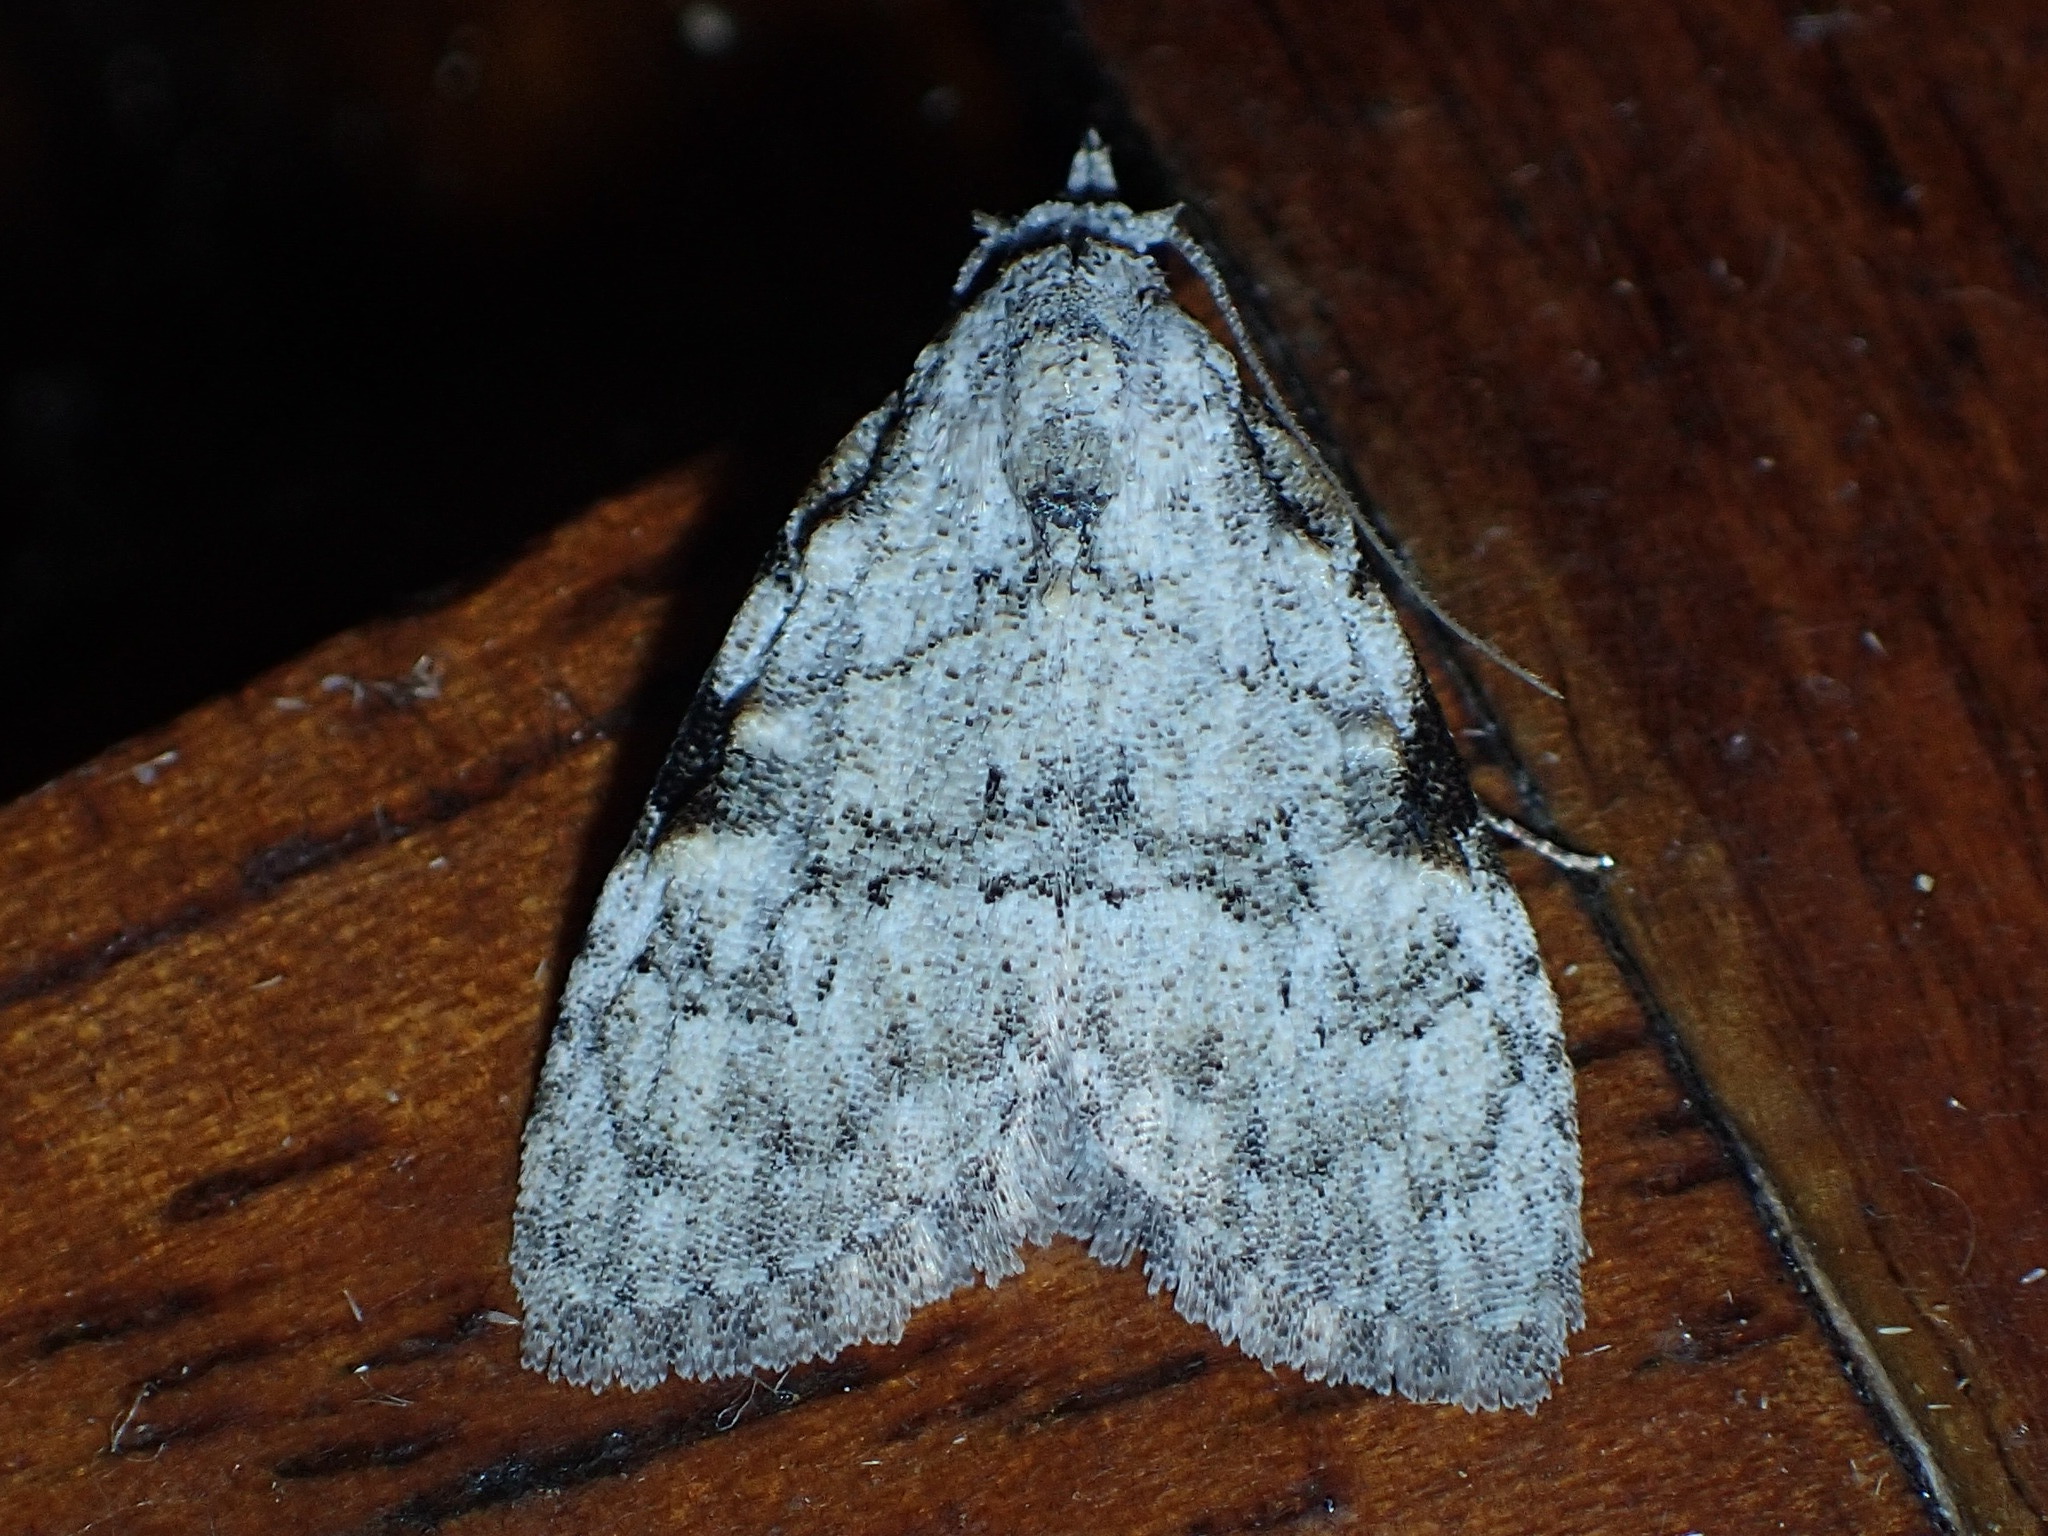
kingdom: Animalia
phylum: Arthropoda
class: Insecta
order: Lepidoptera
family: Nolidae
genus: Meganola
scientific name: Meganola minuscula
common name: Confused meganola moth
